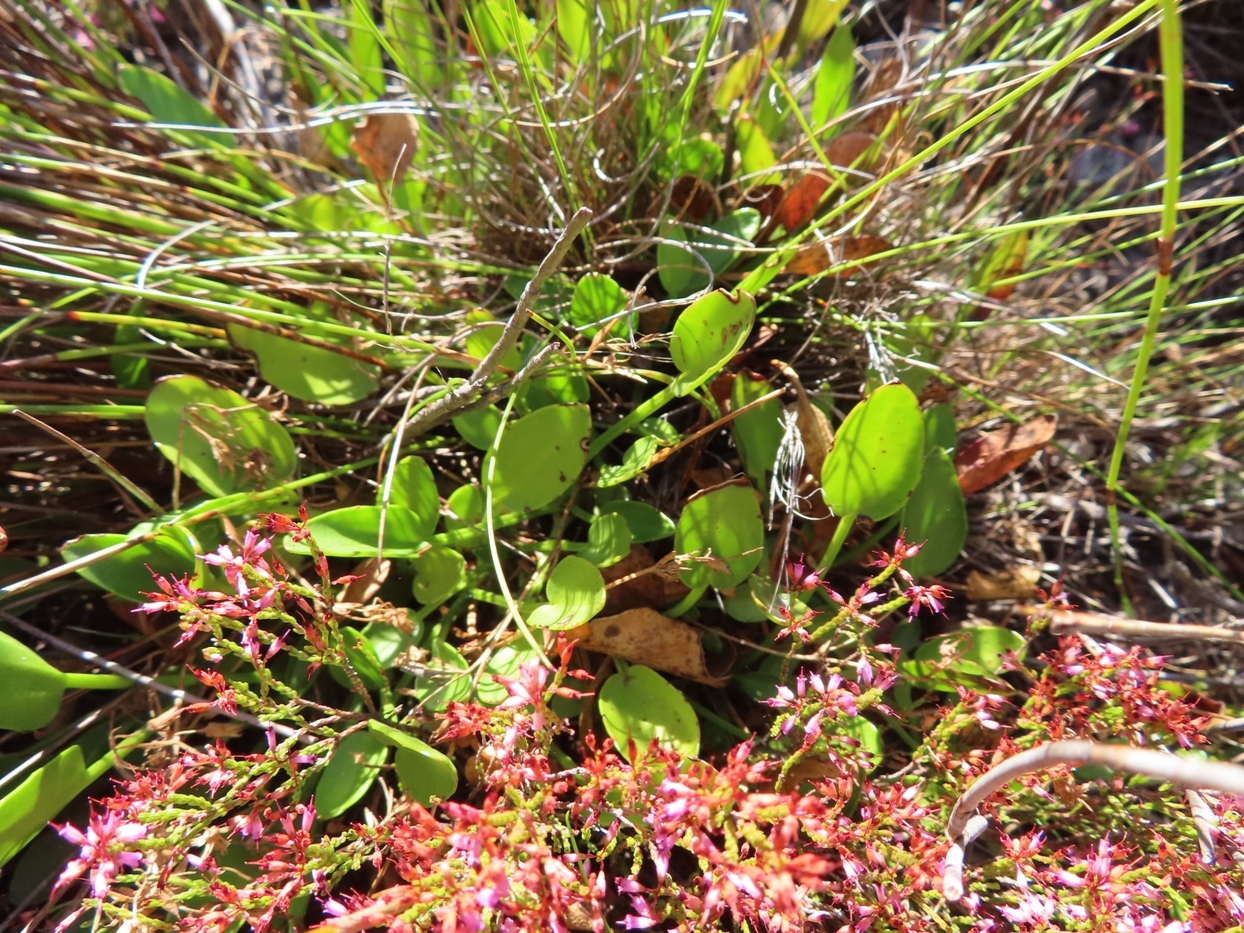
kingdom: Plantae
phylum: Tracheophyta
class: Magnoliopsida
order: Asterales
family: Menyanthaceae
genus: Villarsia
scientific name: Villarsia capensis
